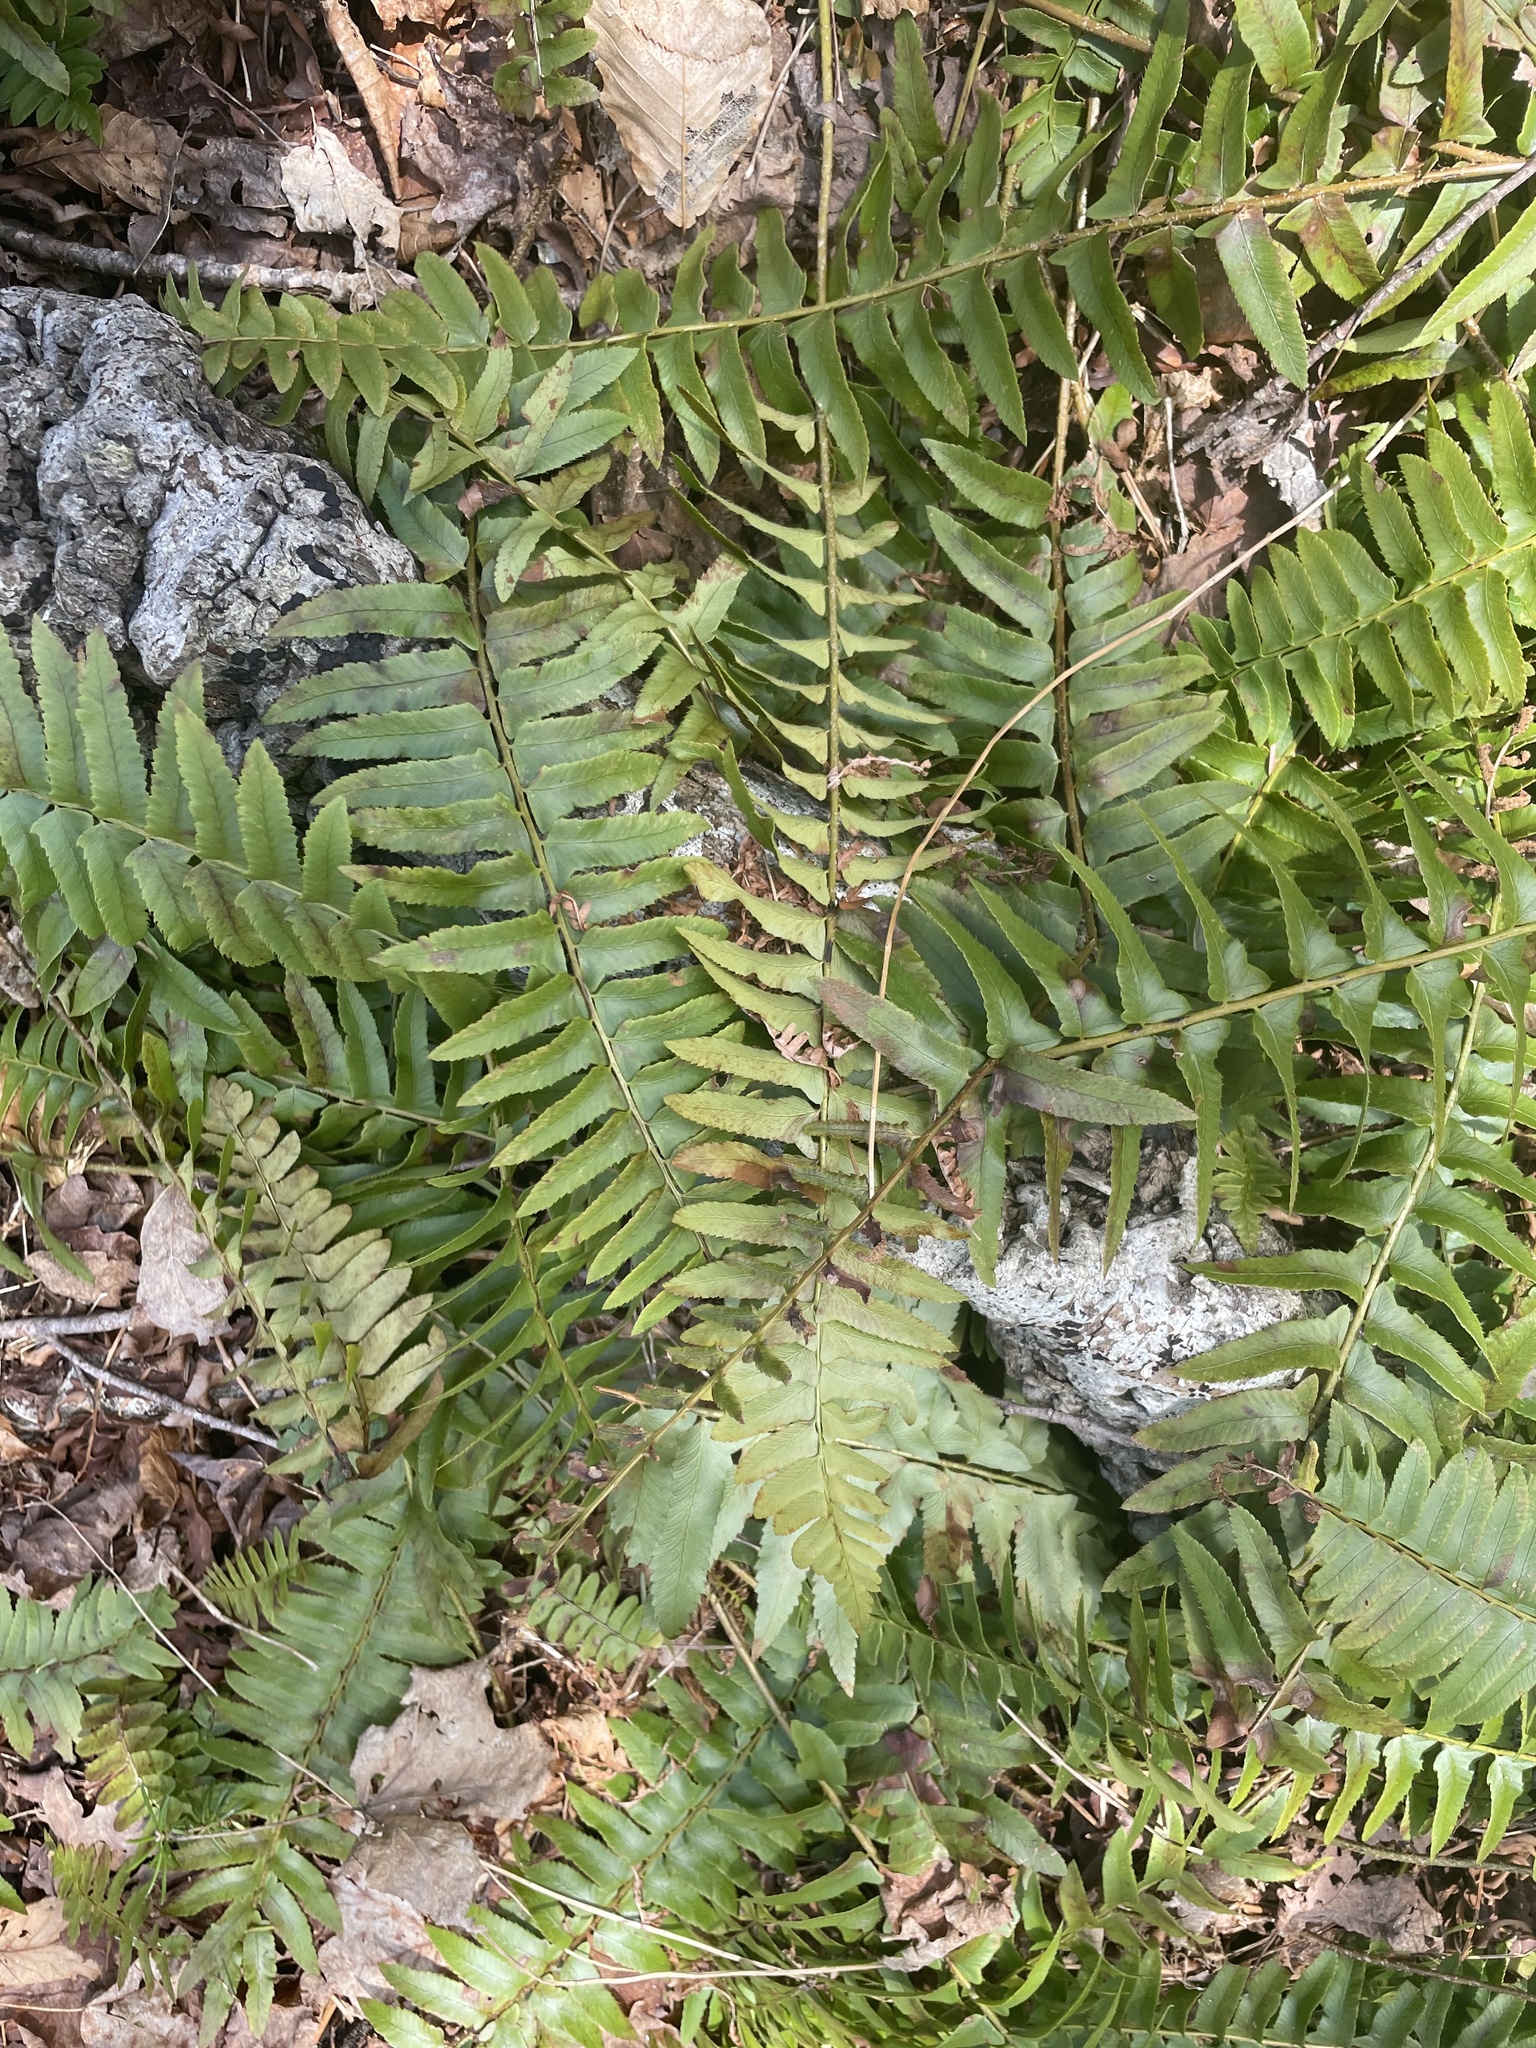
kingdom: Plantae
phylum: Tracheophyta
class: Polypodiopsida
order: Polypodiales
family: Dryopteridaceae
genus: Polystichum
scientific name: Polystichum acrostichoides
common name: Christmas fern
